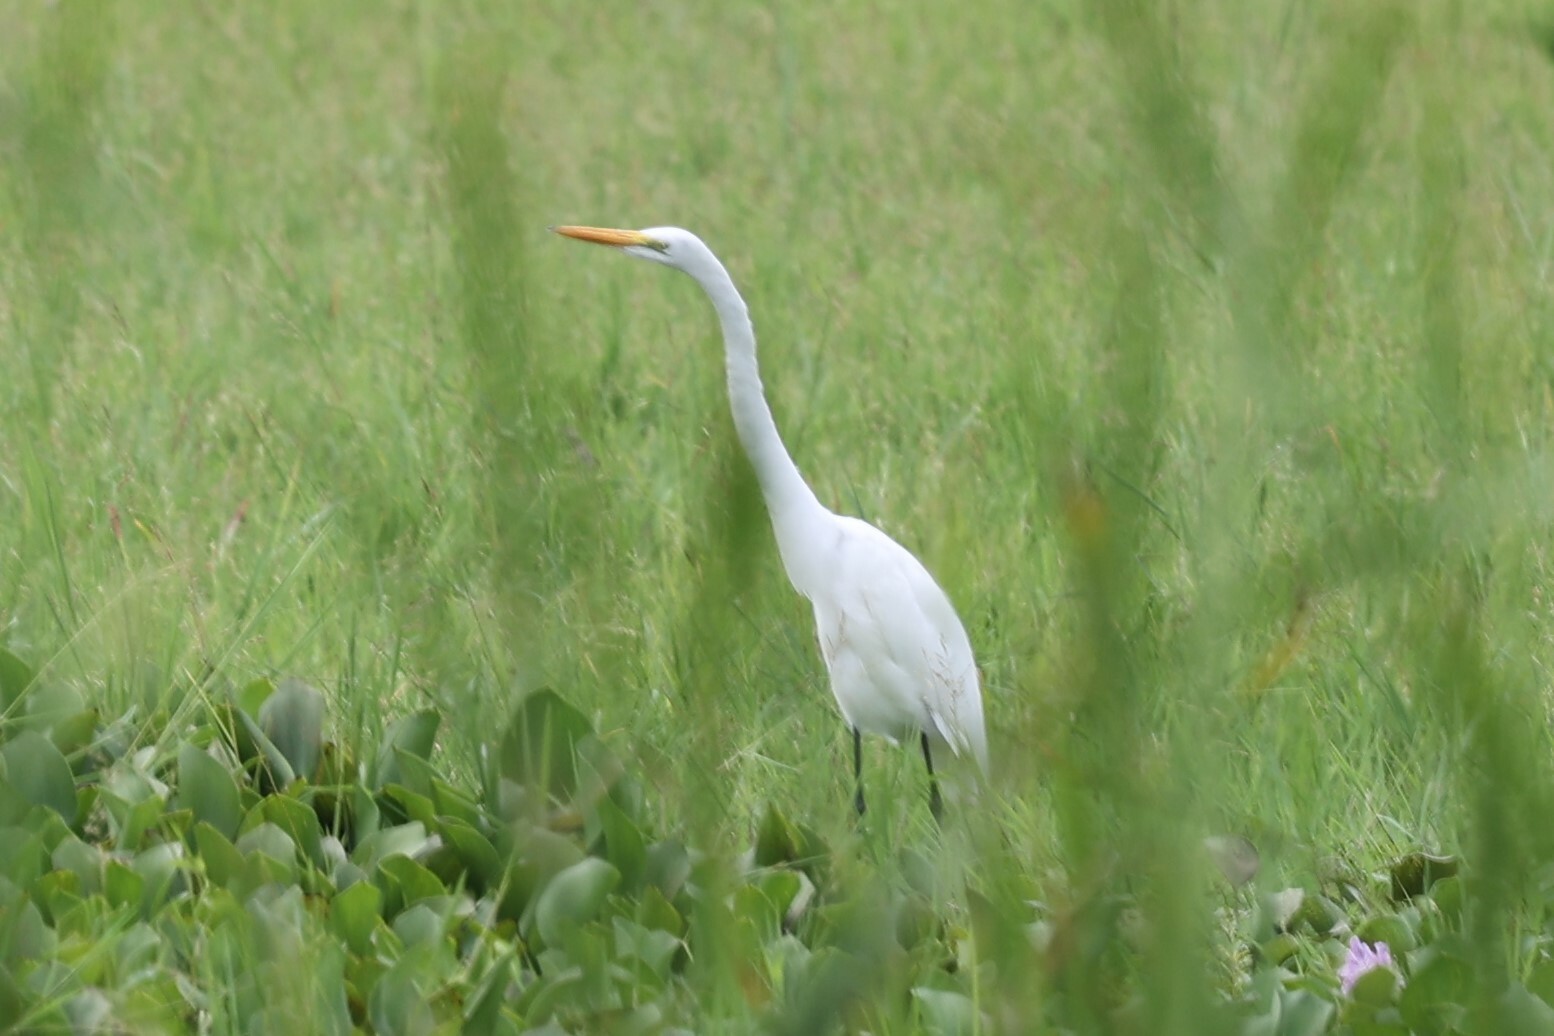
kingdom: Animalia
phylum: Chordata
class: Aves
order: Pelecaniformes
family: Ardeidae
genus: Ardea
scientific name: Ardea alba
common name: Great egret
